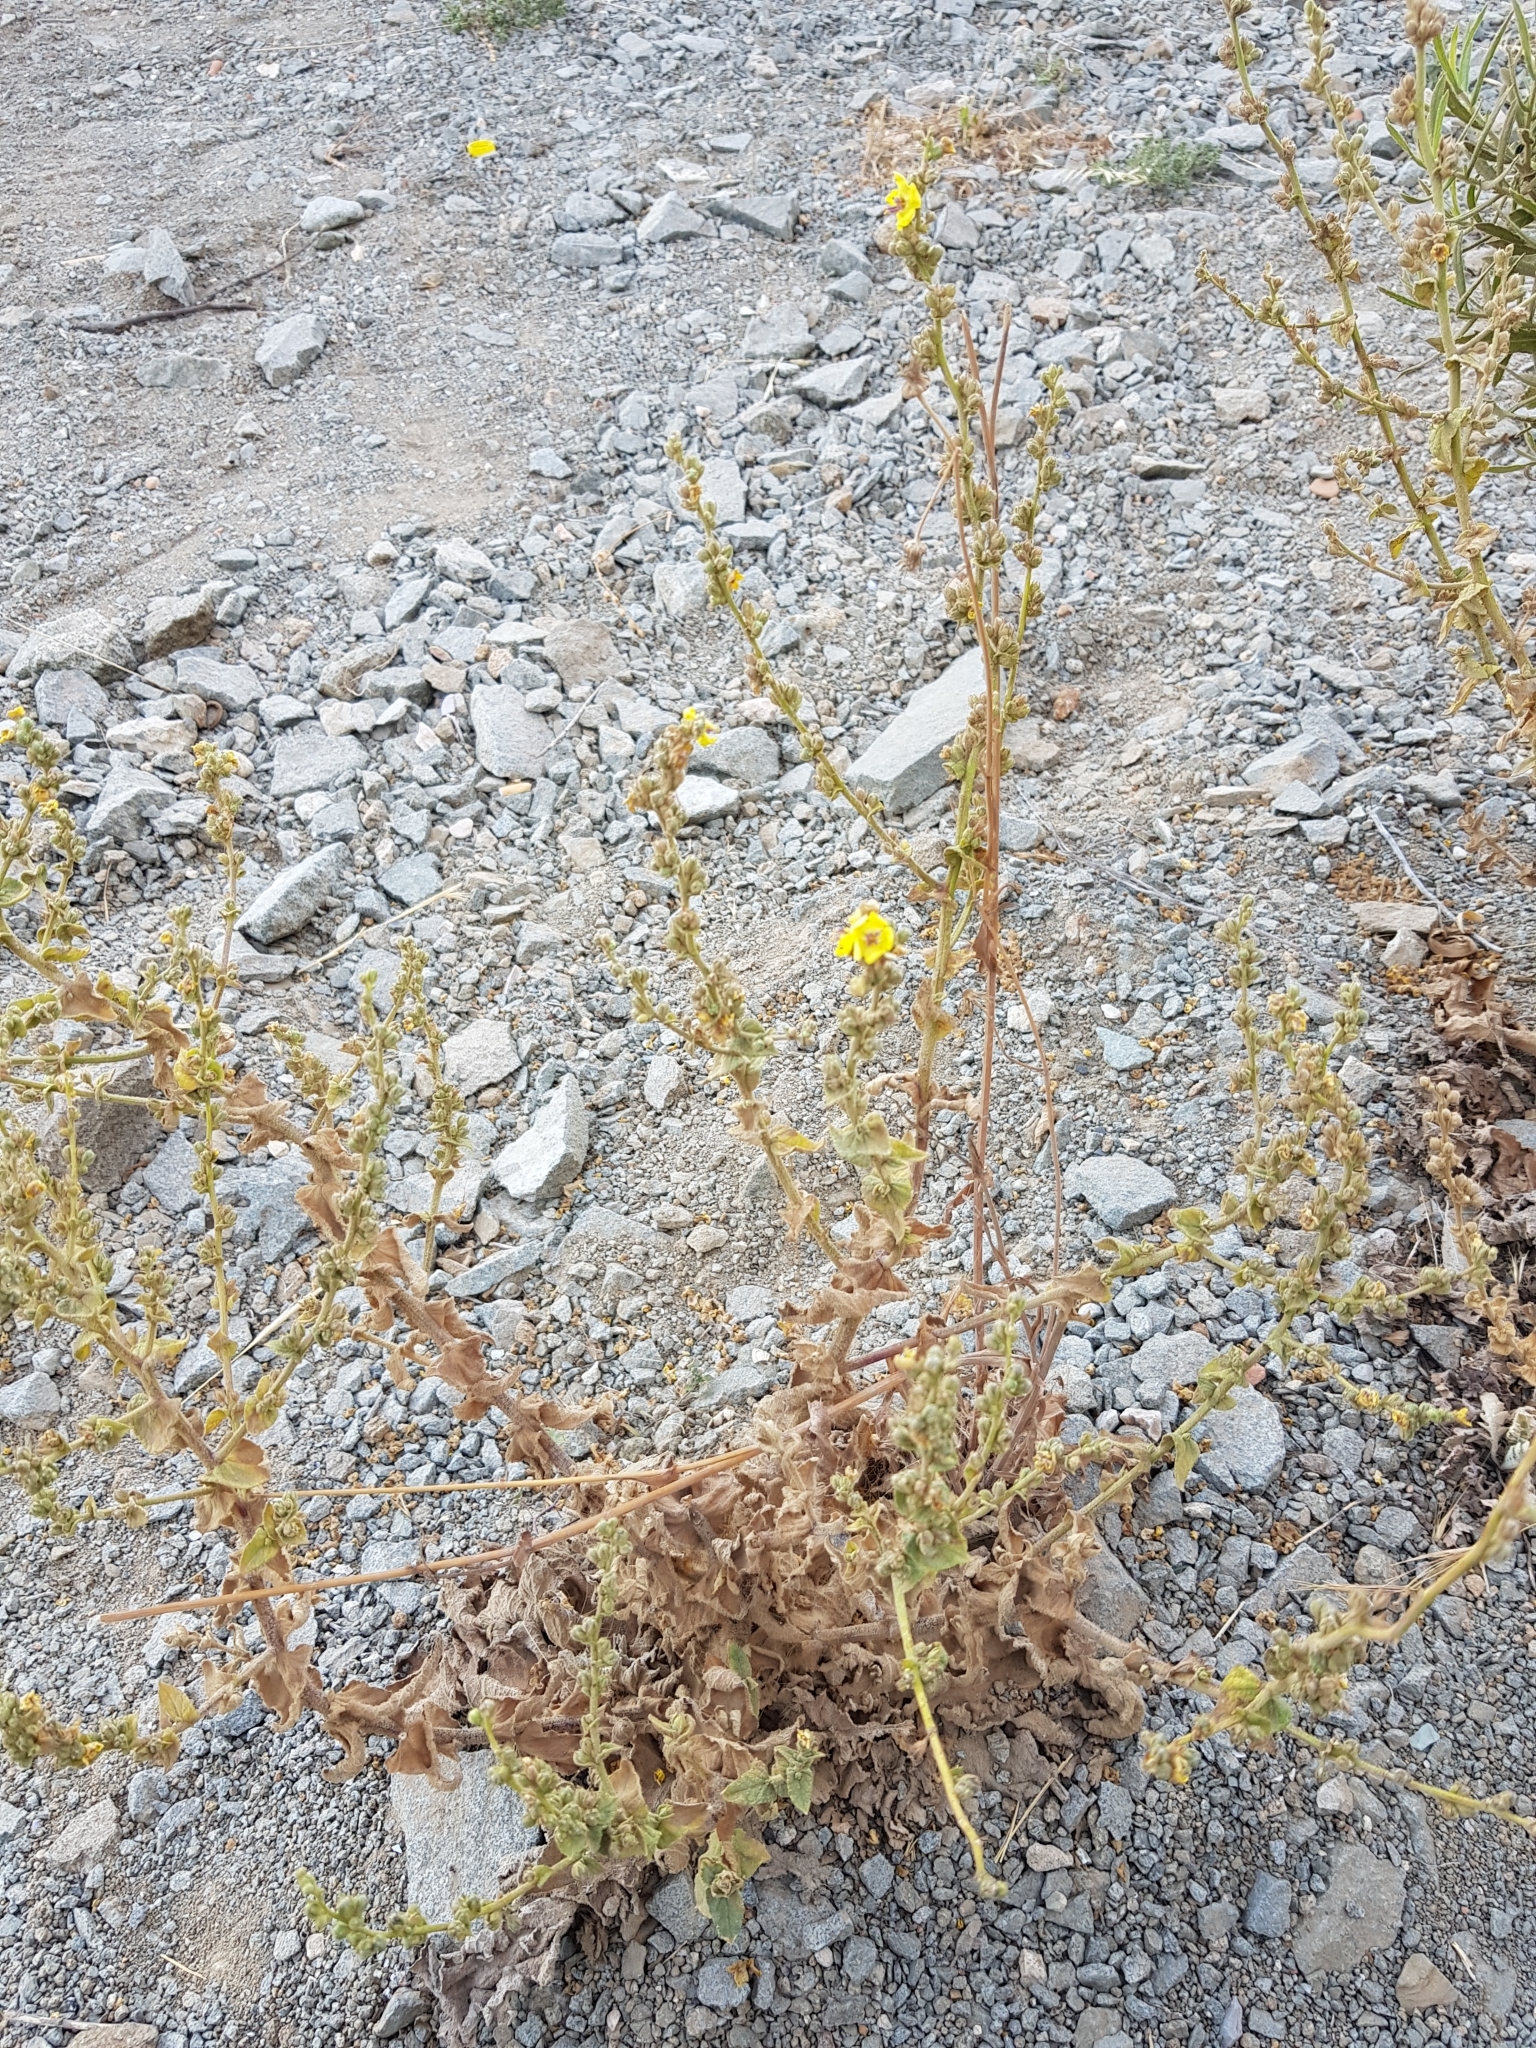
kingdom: Plantae
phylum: Tracheophyta
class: Magnoliopsida
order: Lamiales
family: Scrophulariaceae
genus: Verbascum
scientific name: Verbascum sinuatum
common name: Wavyleaf mullein
